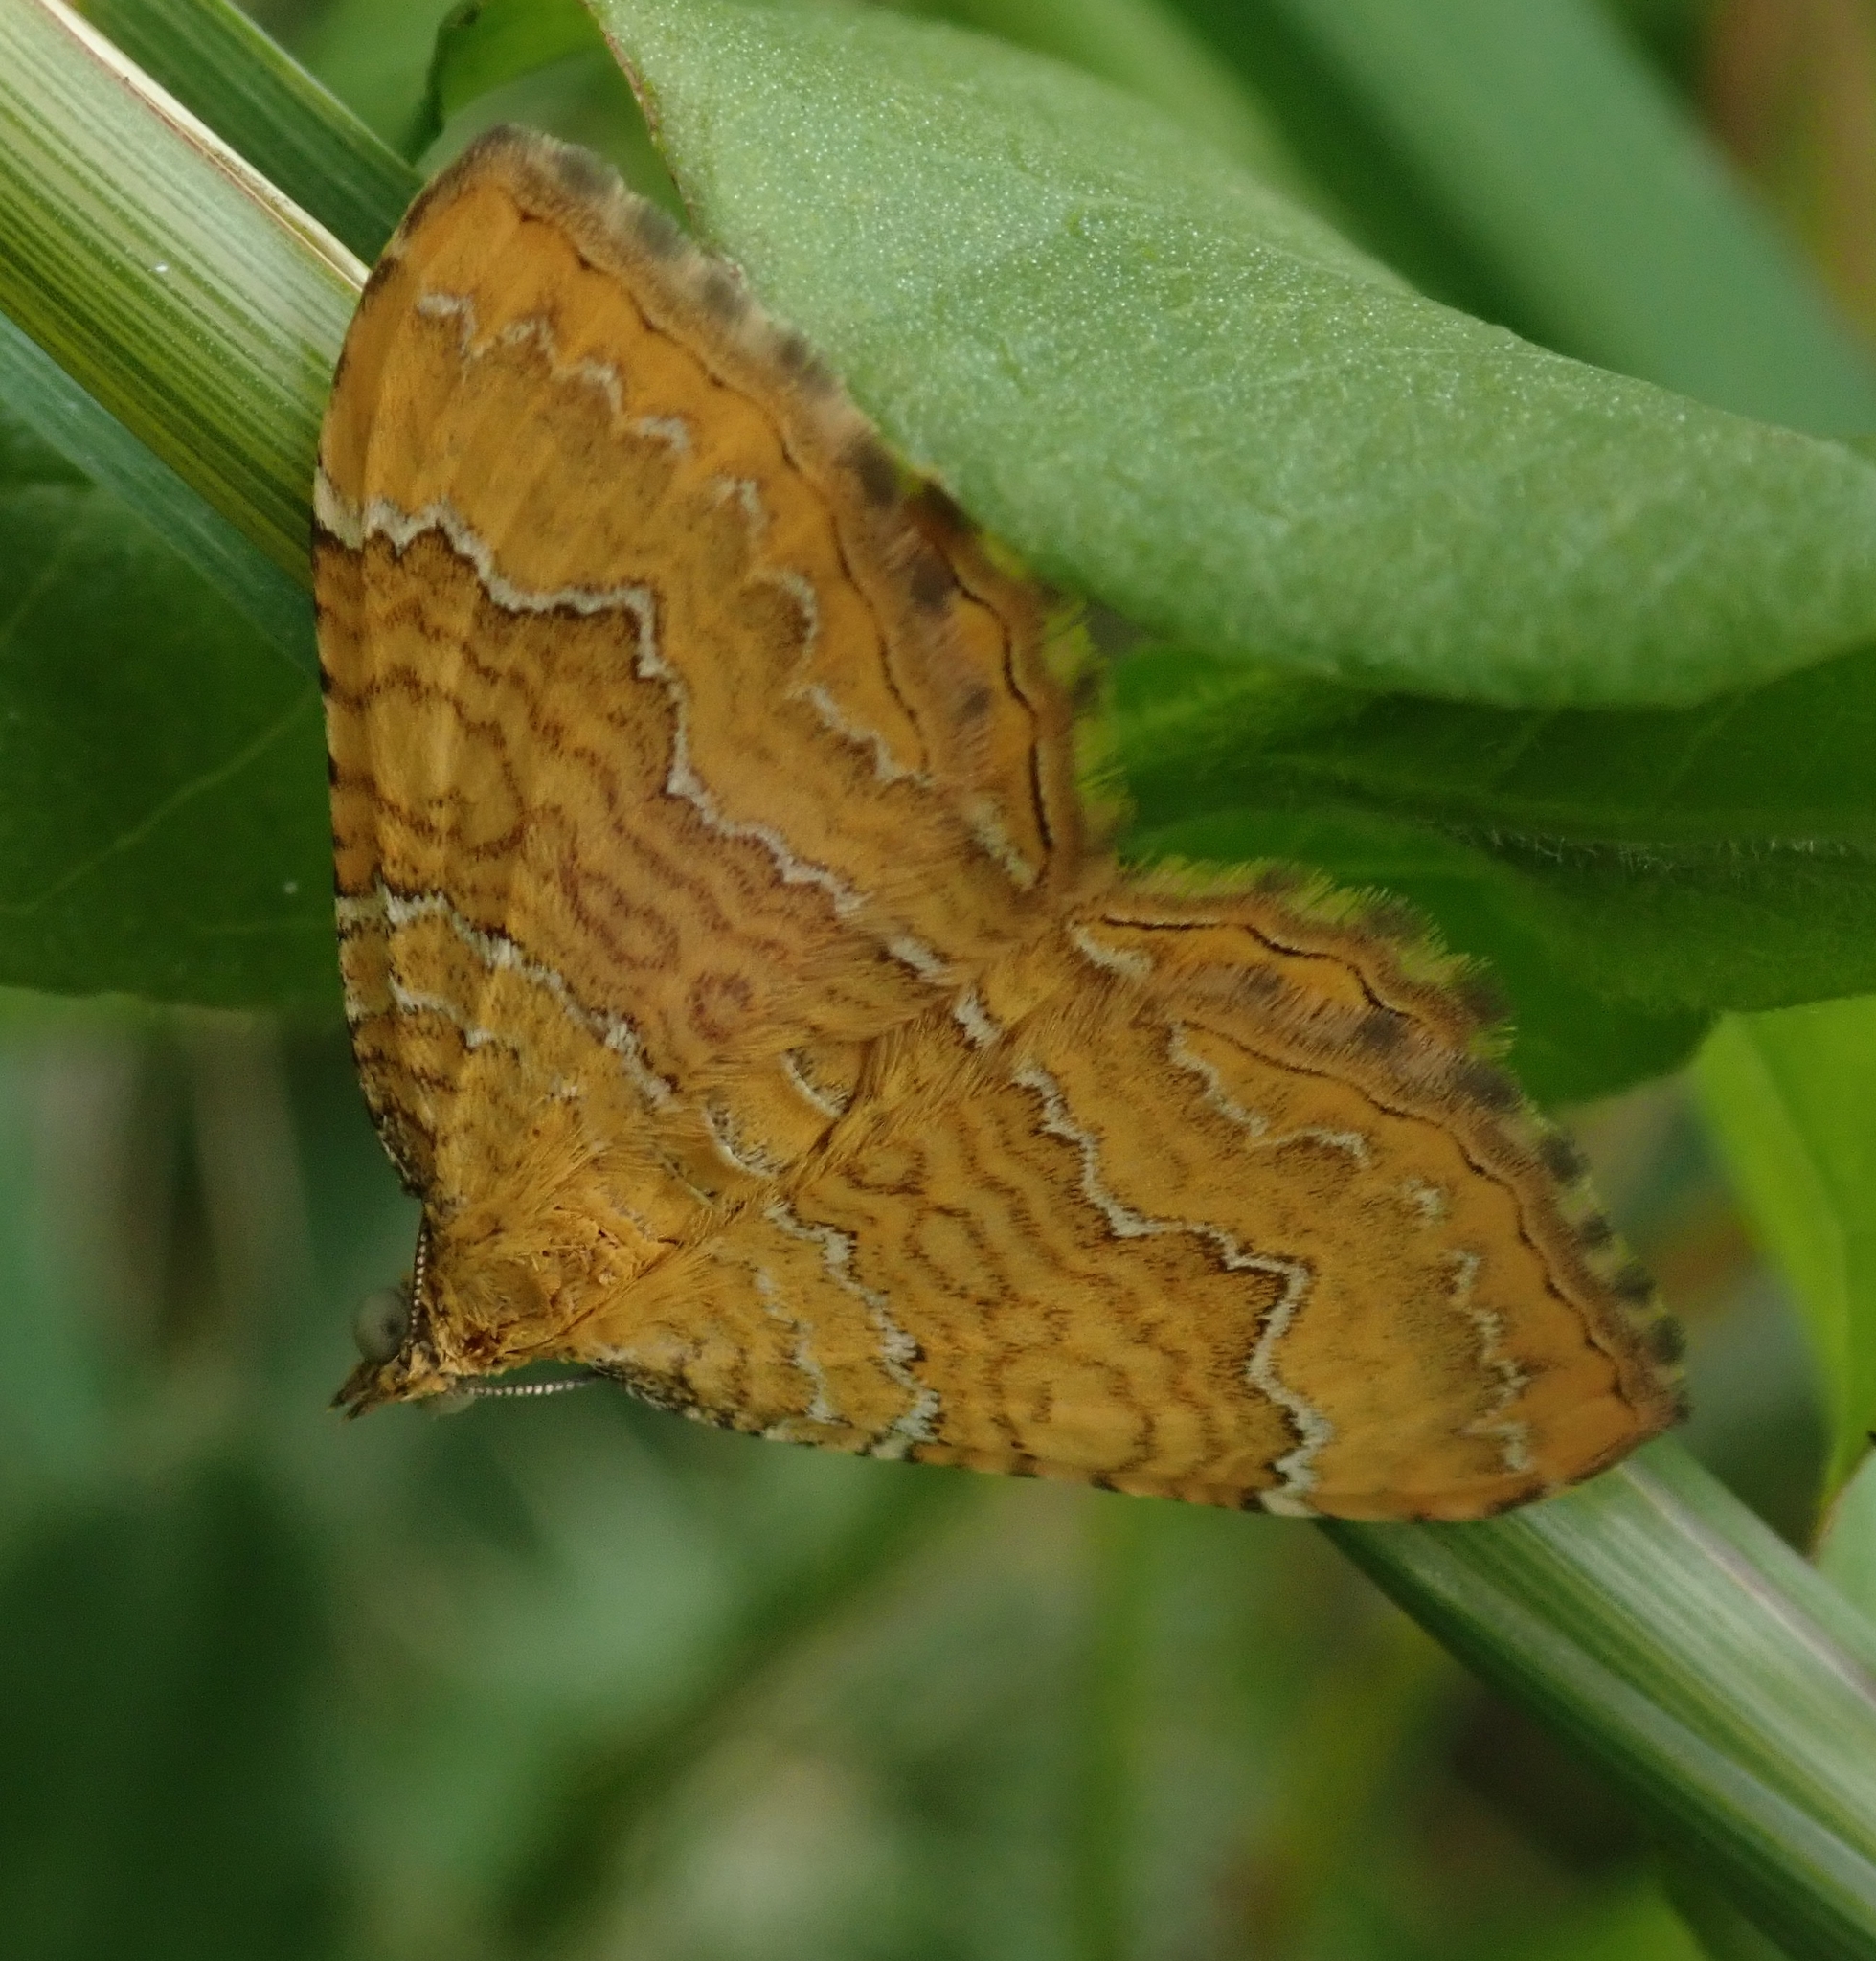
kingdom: Animalia
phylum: Arthropoda
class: Insecta
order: Lepidoptera
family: Geometridae
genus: Camptogramma
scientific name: Camptogramma bilineata
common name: Yellow shell
